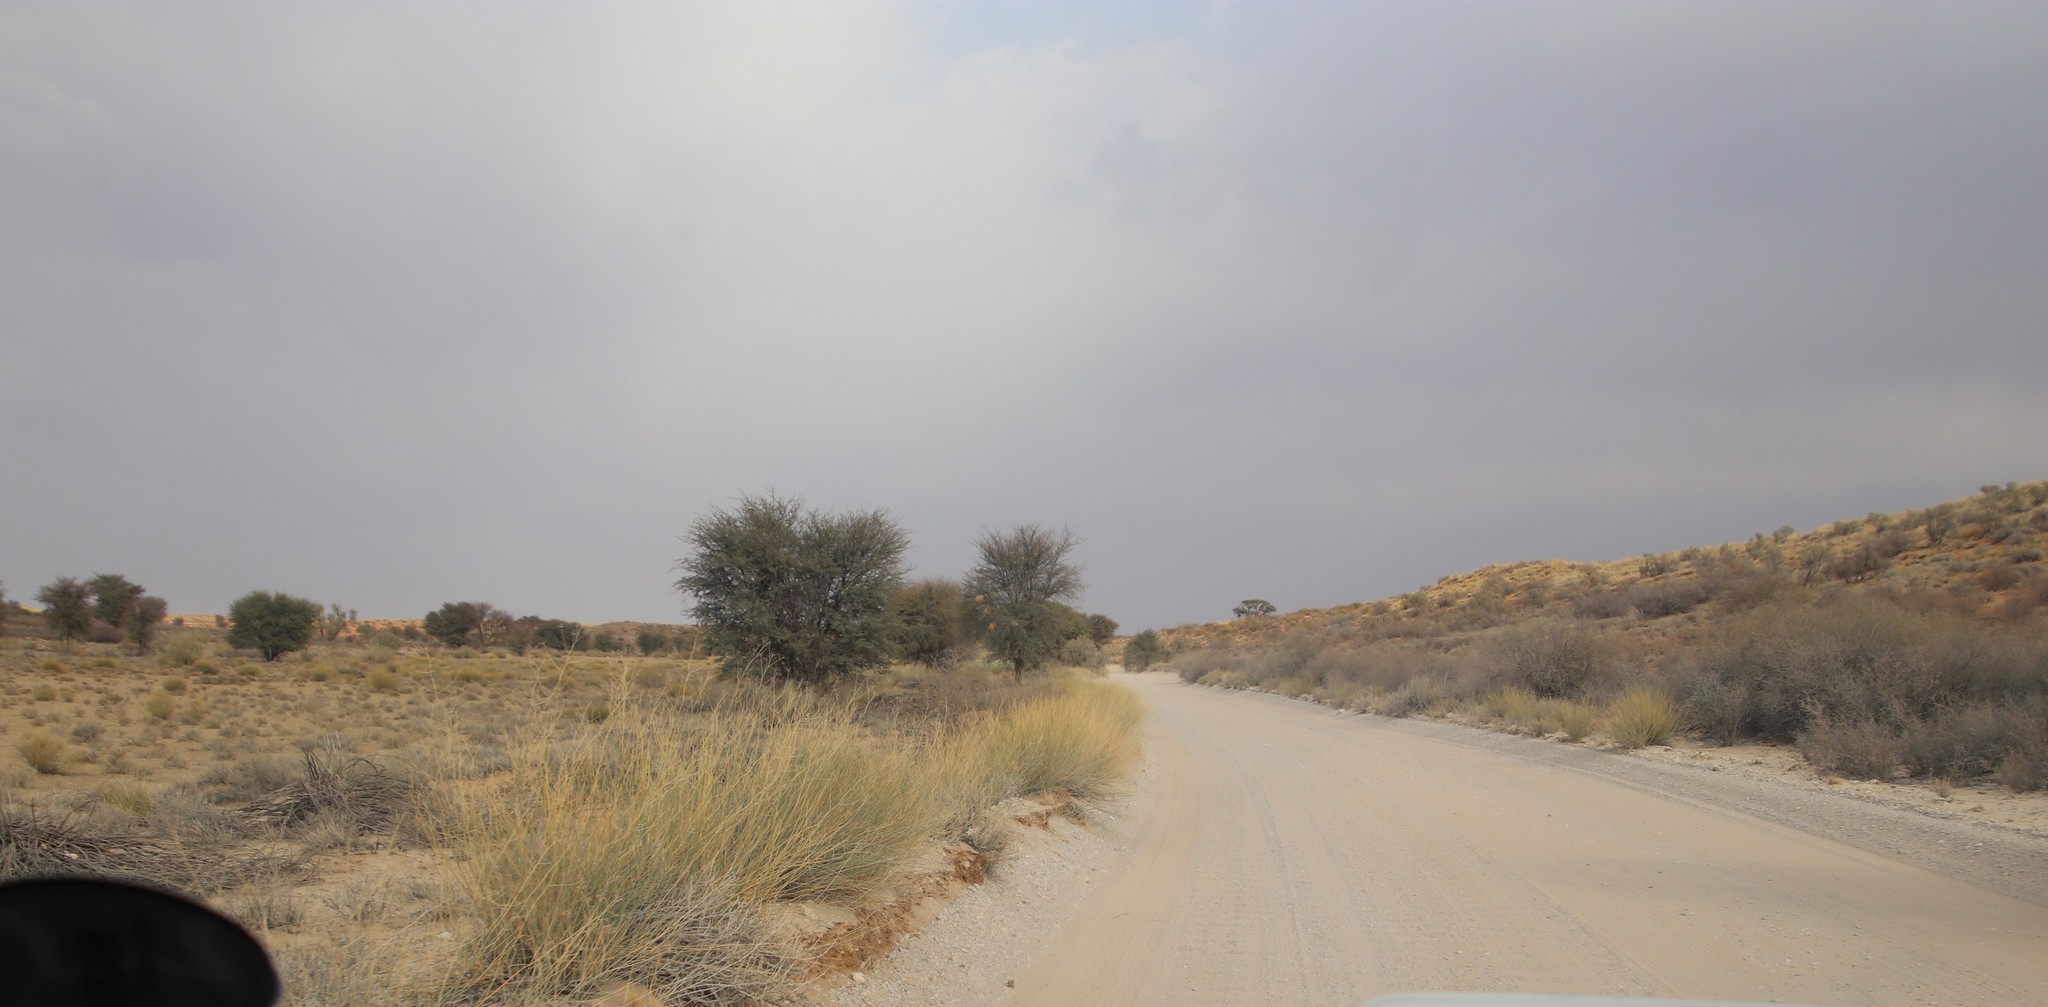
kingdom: Plantae
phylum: Tracheophyta
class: Magnoliopsida
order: Apiales
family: Apiaceae
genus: Deverra
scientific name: Deverra aphylla
